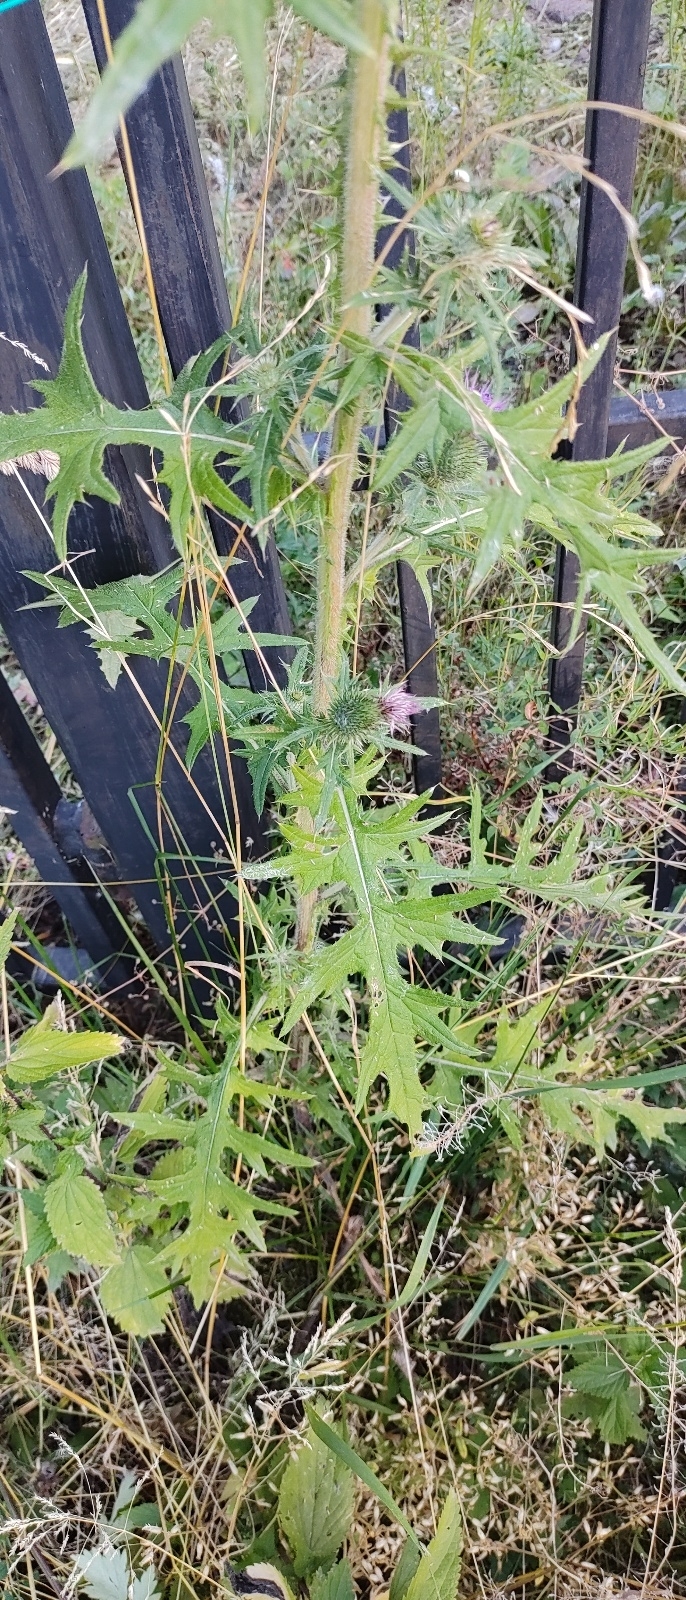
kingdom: Plantae
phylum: Tracheophyta
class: Magnoliopsida
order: Asterales
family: Asteraceae
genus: Cirsium
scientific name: Cirsium vulgare
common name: Bull thistle
